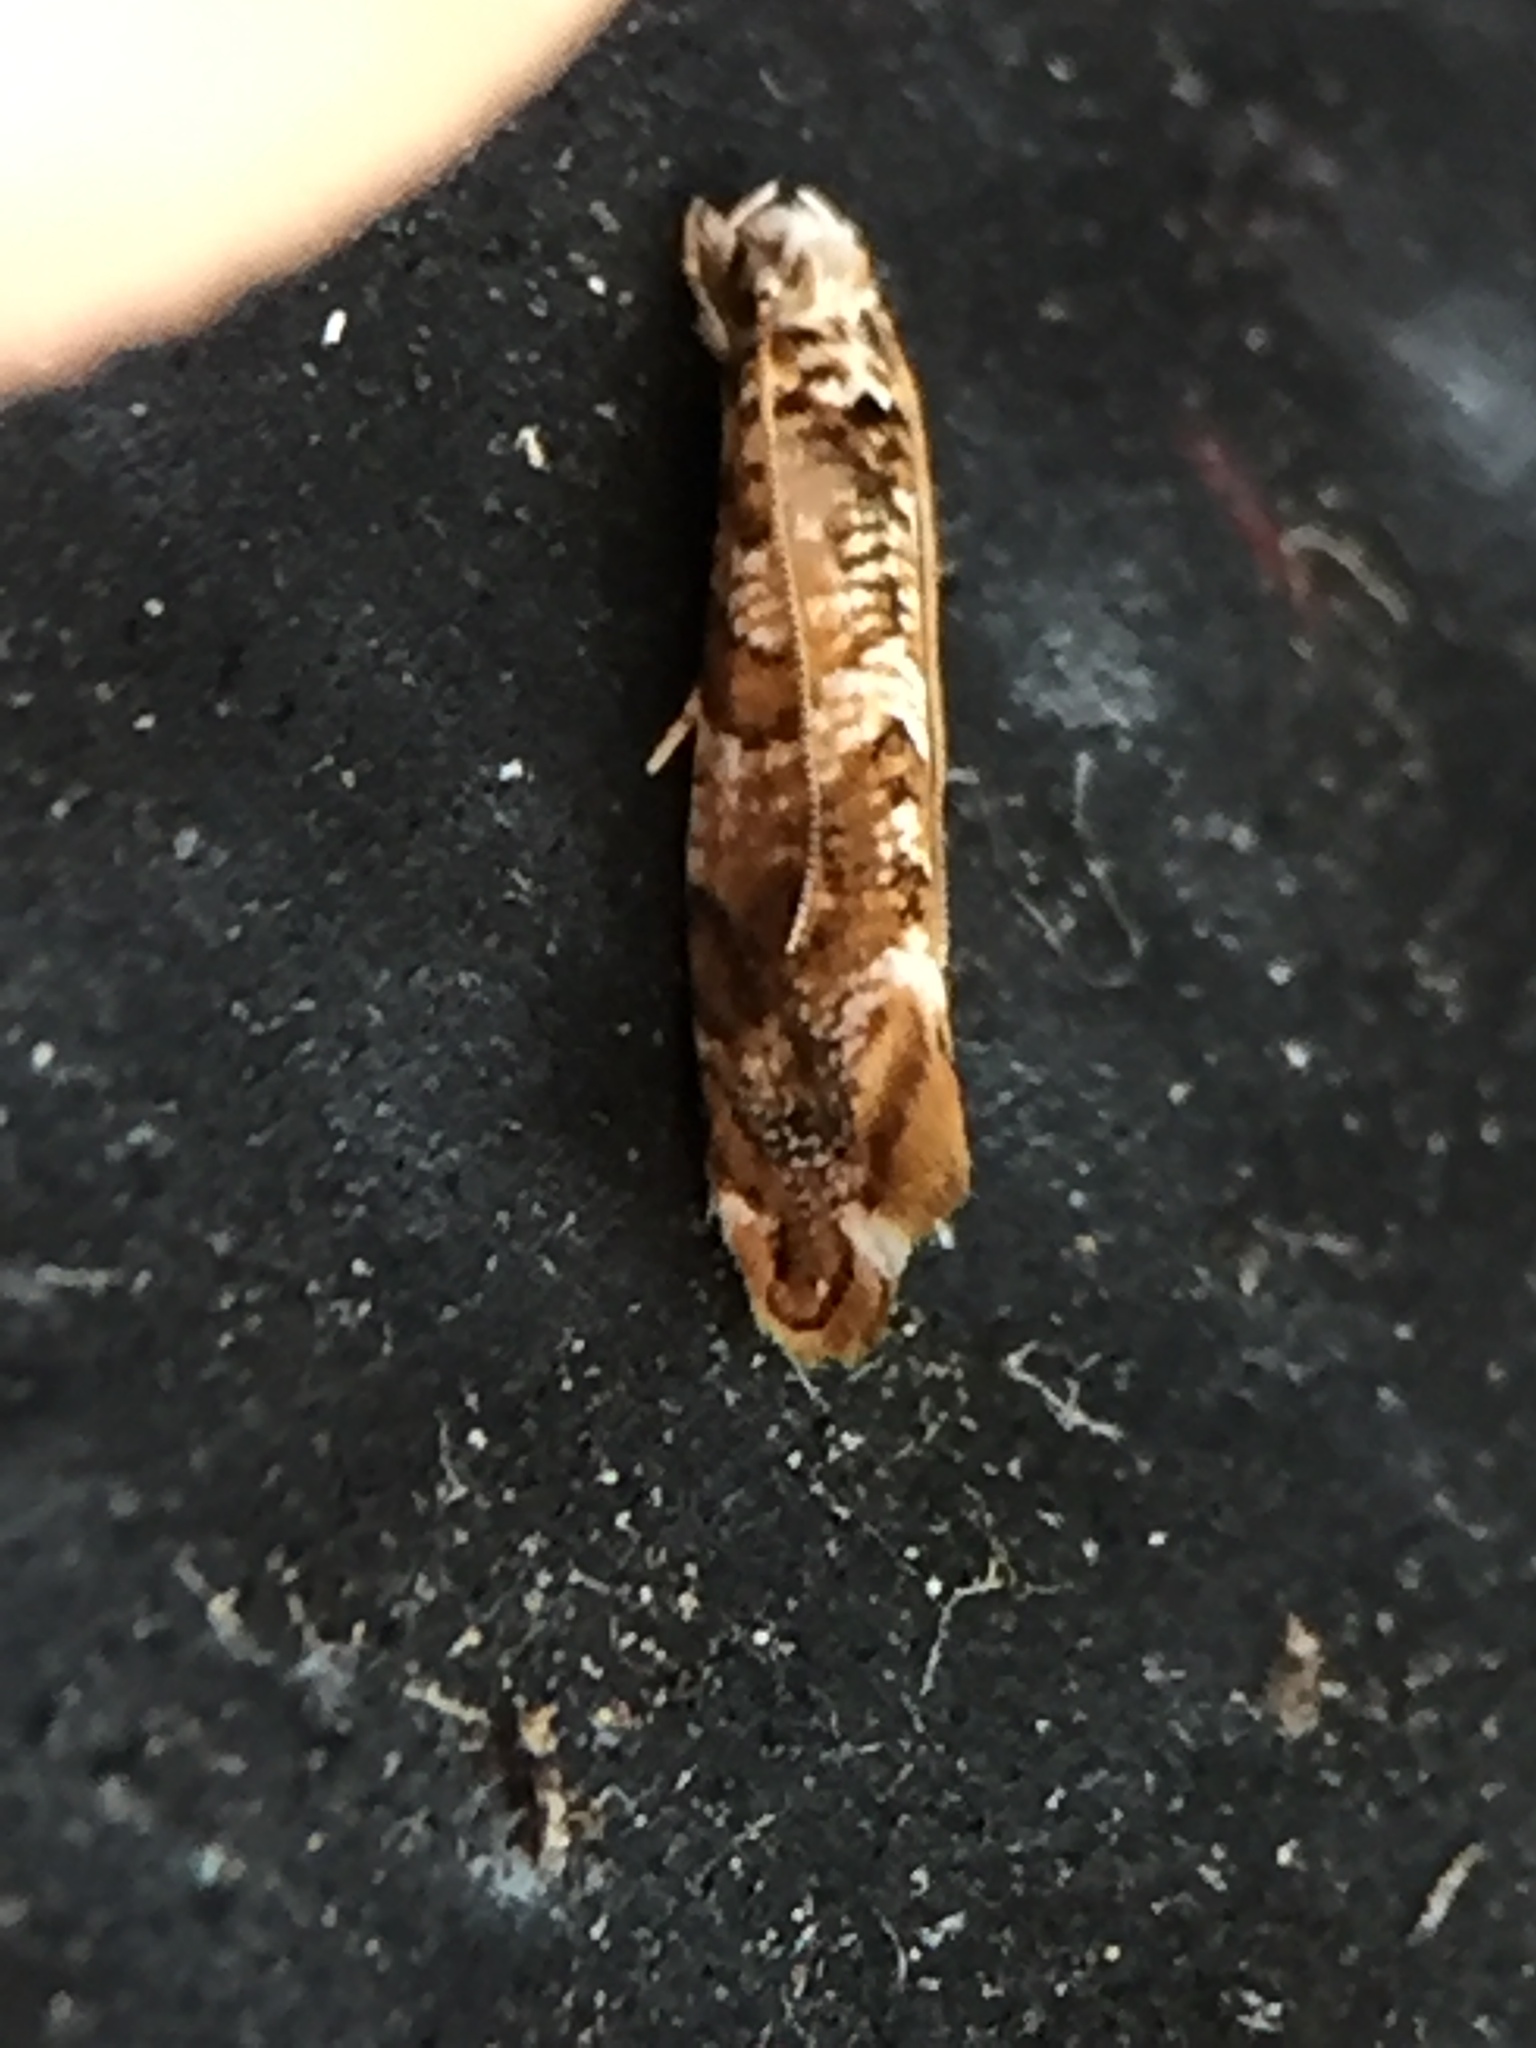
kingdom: Animalia
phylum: Arthropoda
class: Insecta
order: Lepidoptera
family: Tineidae
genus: Eschatotypa
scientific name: Eschatotypa derogatella
